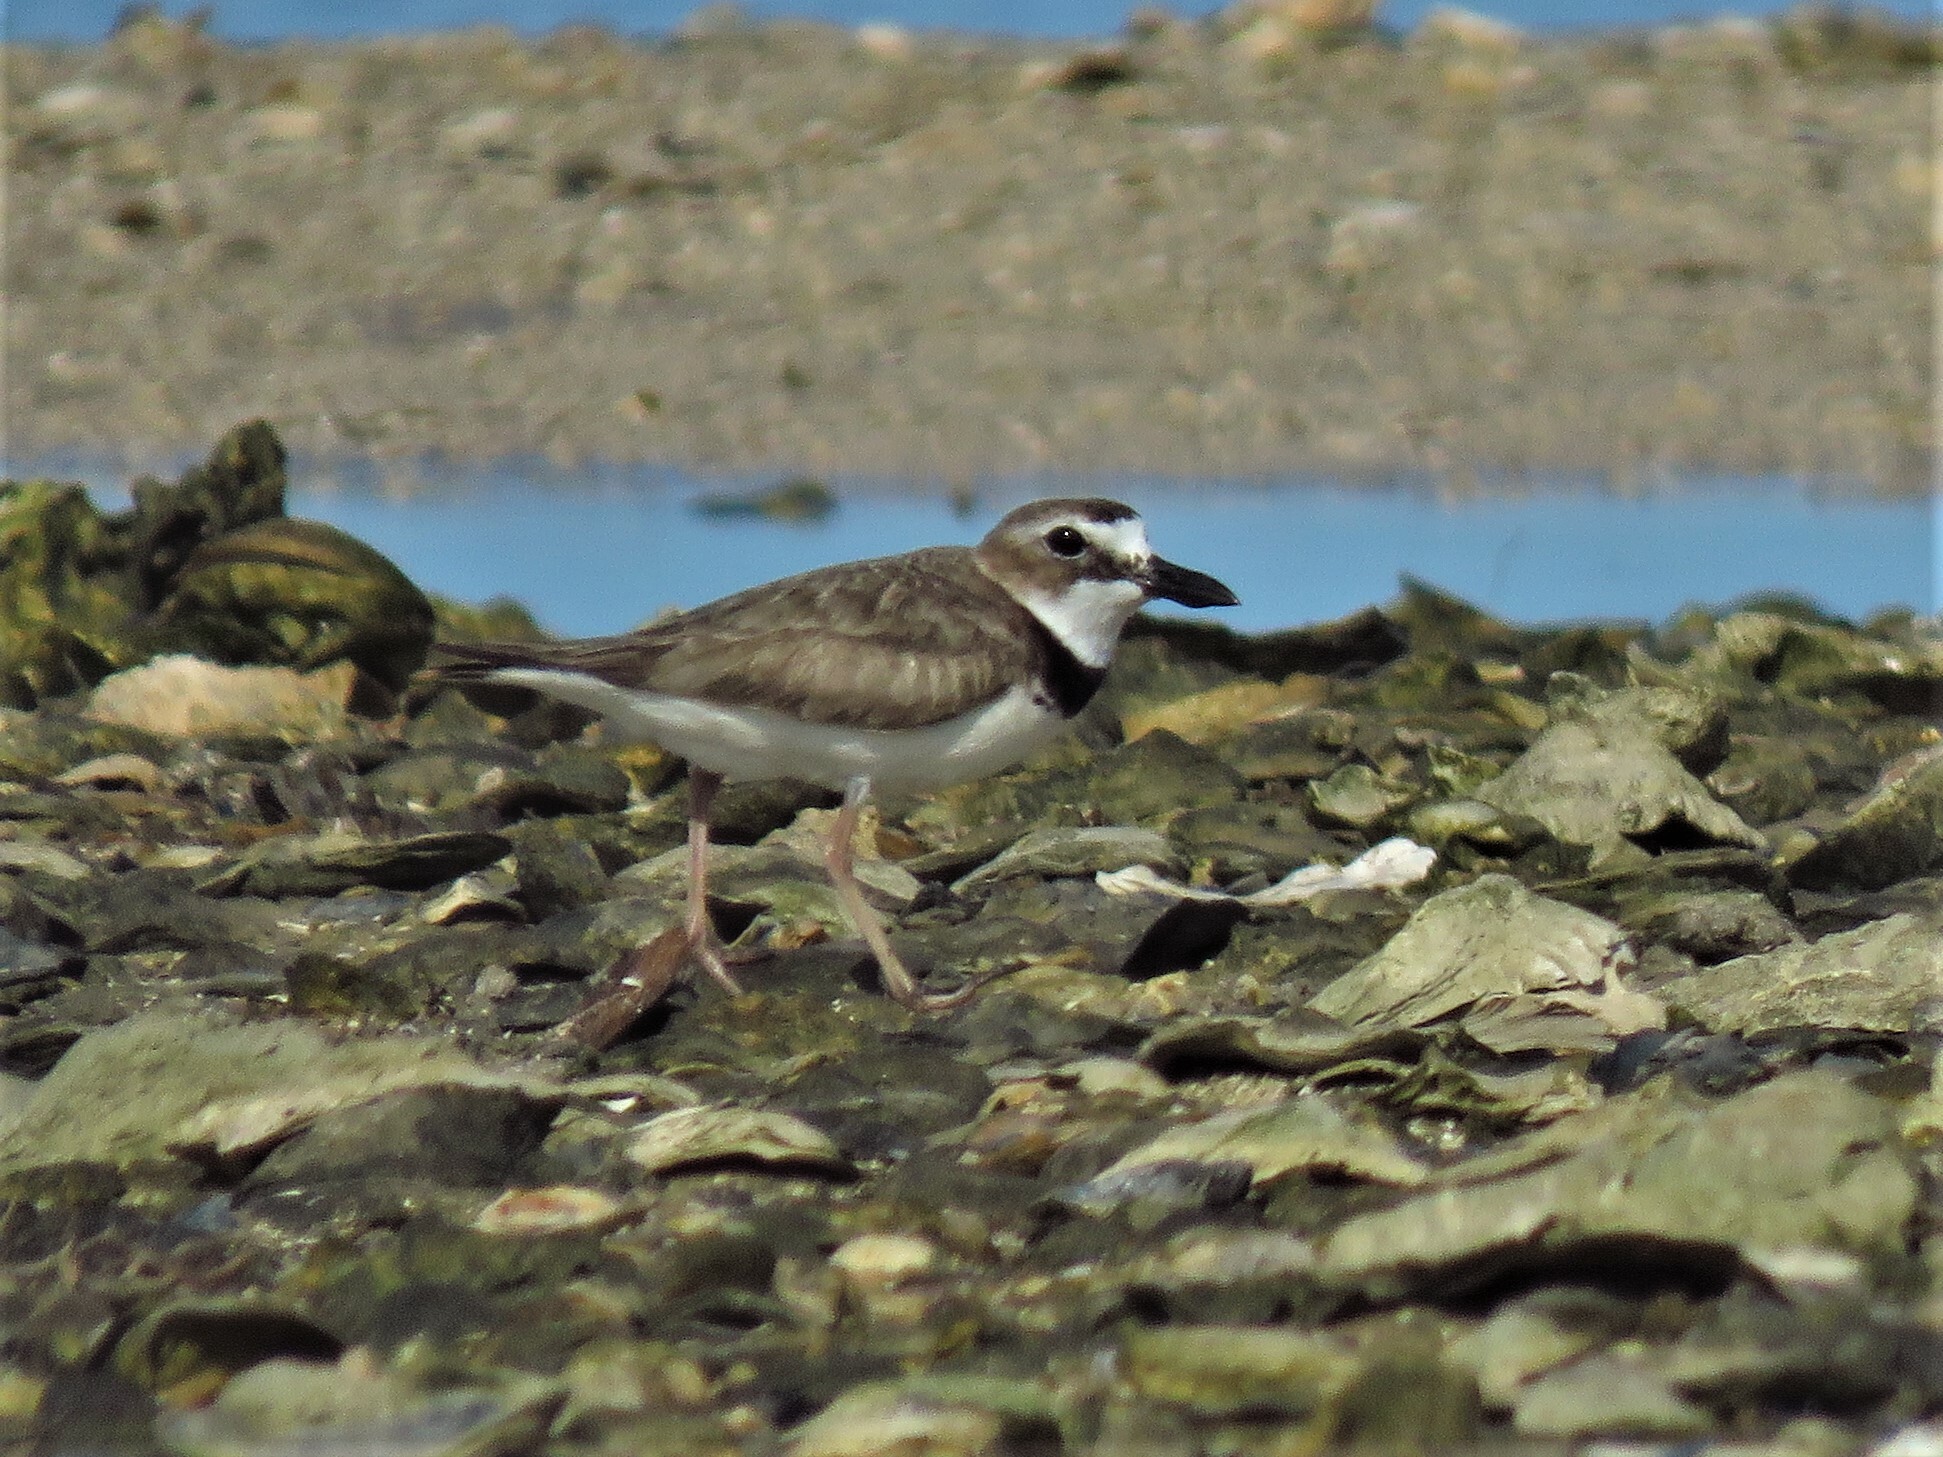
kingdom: Animalia
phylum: Chordata
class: Aves
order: Charadriiformes
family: Charadriidae
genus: Anarhynchus
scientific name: Anarhynchus
